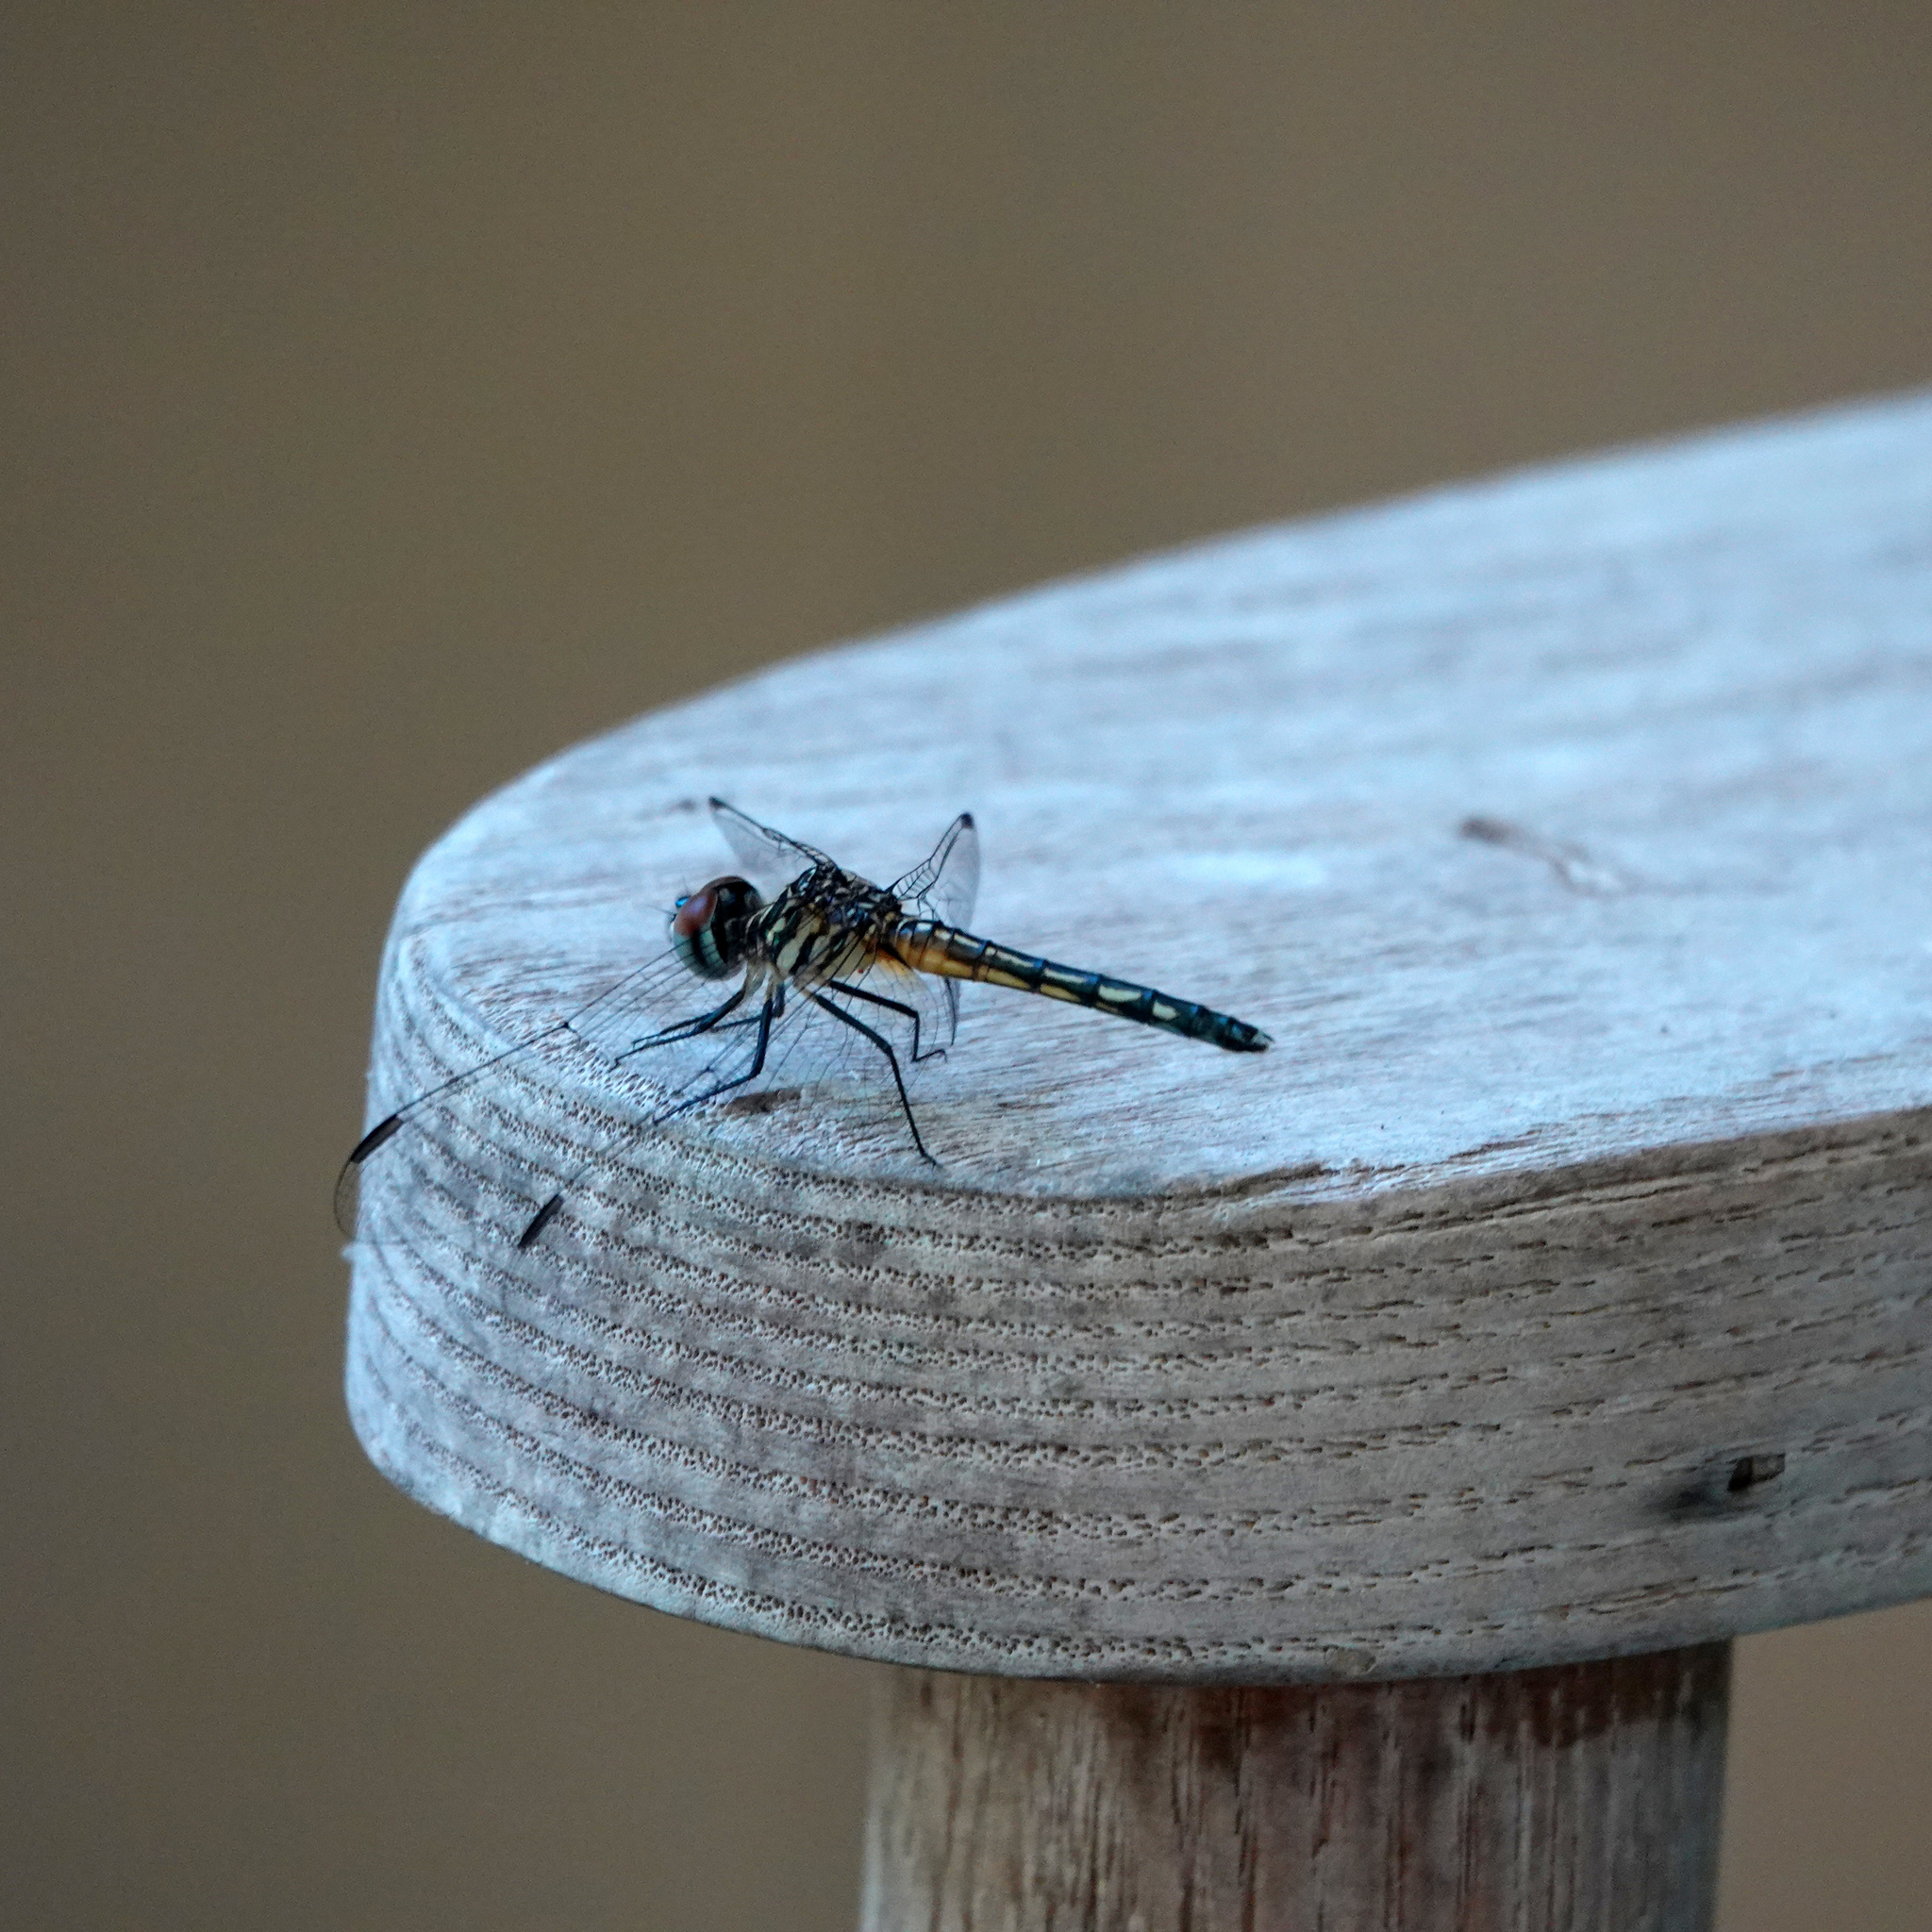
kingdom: Animalia
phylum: Arthropoda
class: Insecta
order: Odonata
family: Libellulidae
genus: Pachydiplax
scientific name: Pachydiplax longipennis
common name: Blue dasher
